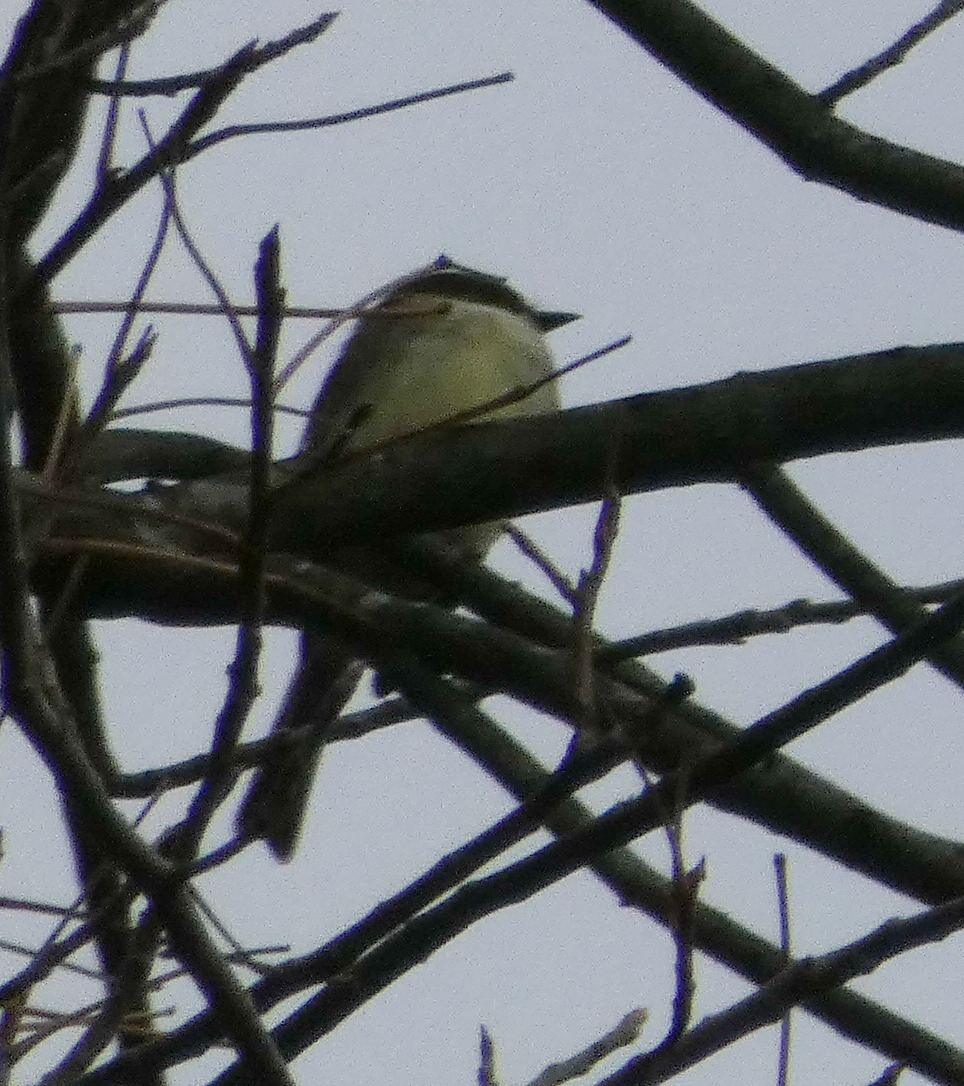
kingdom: Animalia
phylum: Chordata
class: Aves
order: Passeriformes
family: Tyrannidae
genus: Sayornis
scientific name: Sayornis phoebe
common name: Eastern phoebe
